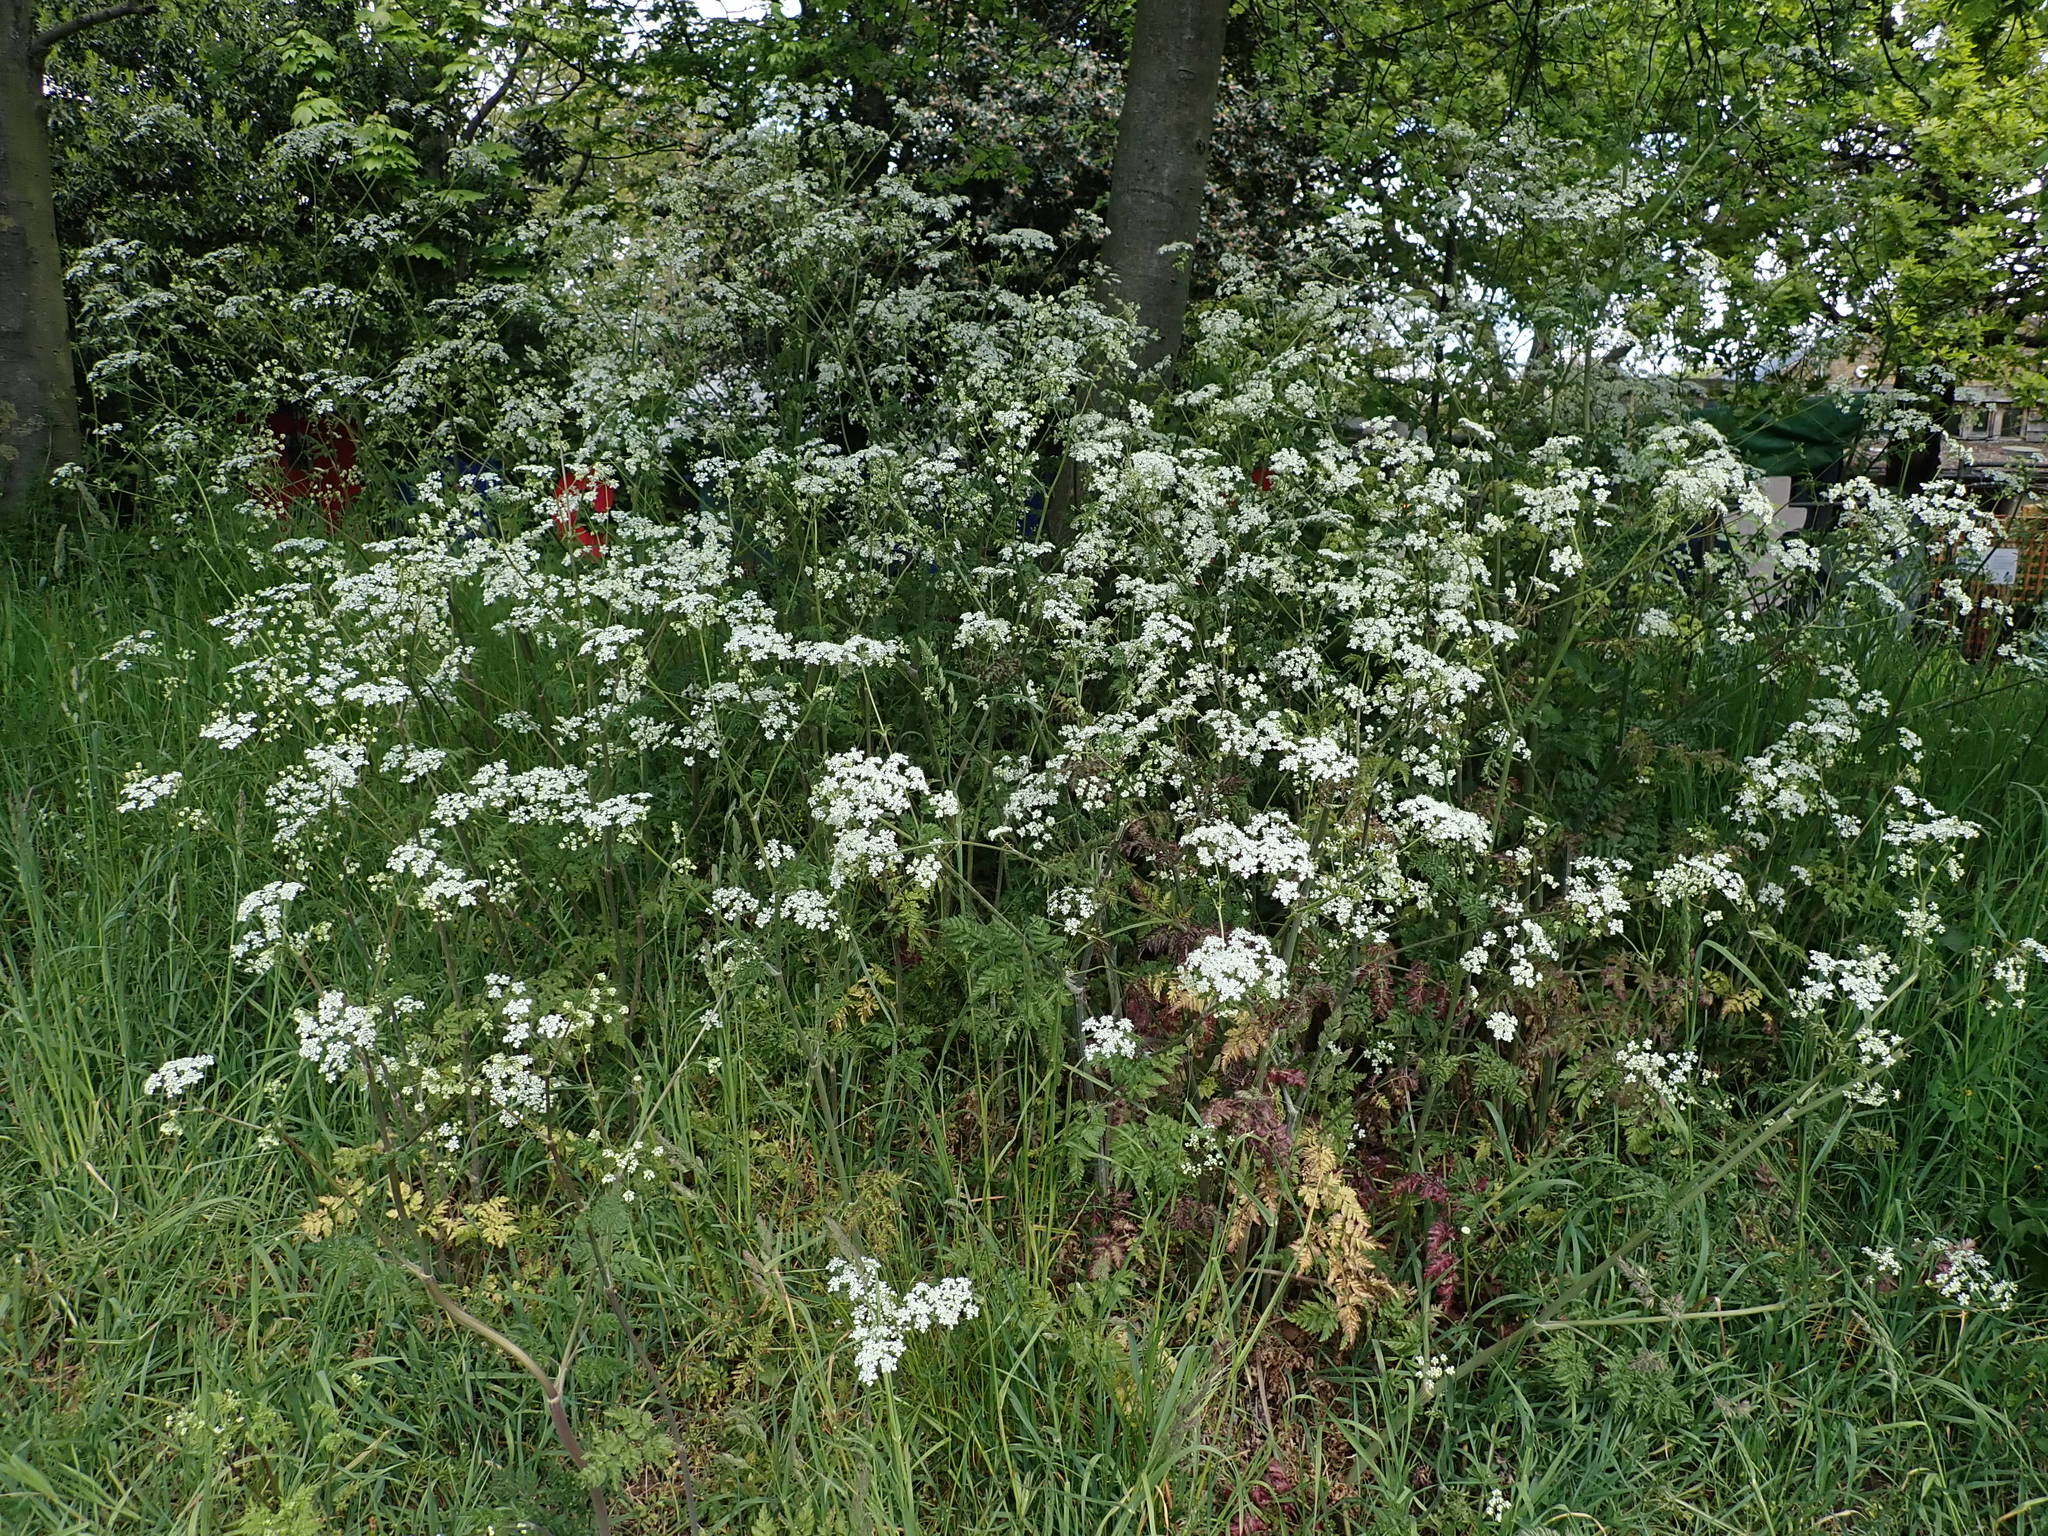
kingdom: Plantae
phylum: Tracheophyta
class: Magnoliopsida
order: Apiales
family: Apiaceae
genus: Anthriscus
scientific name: Anthriscus sylvestris
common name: Cow parsley
